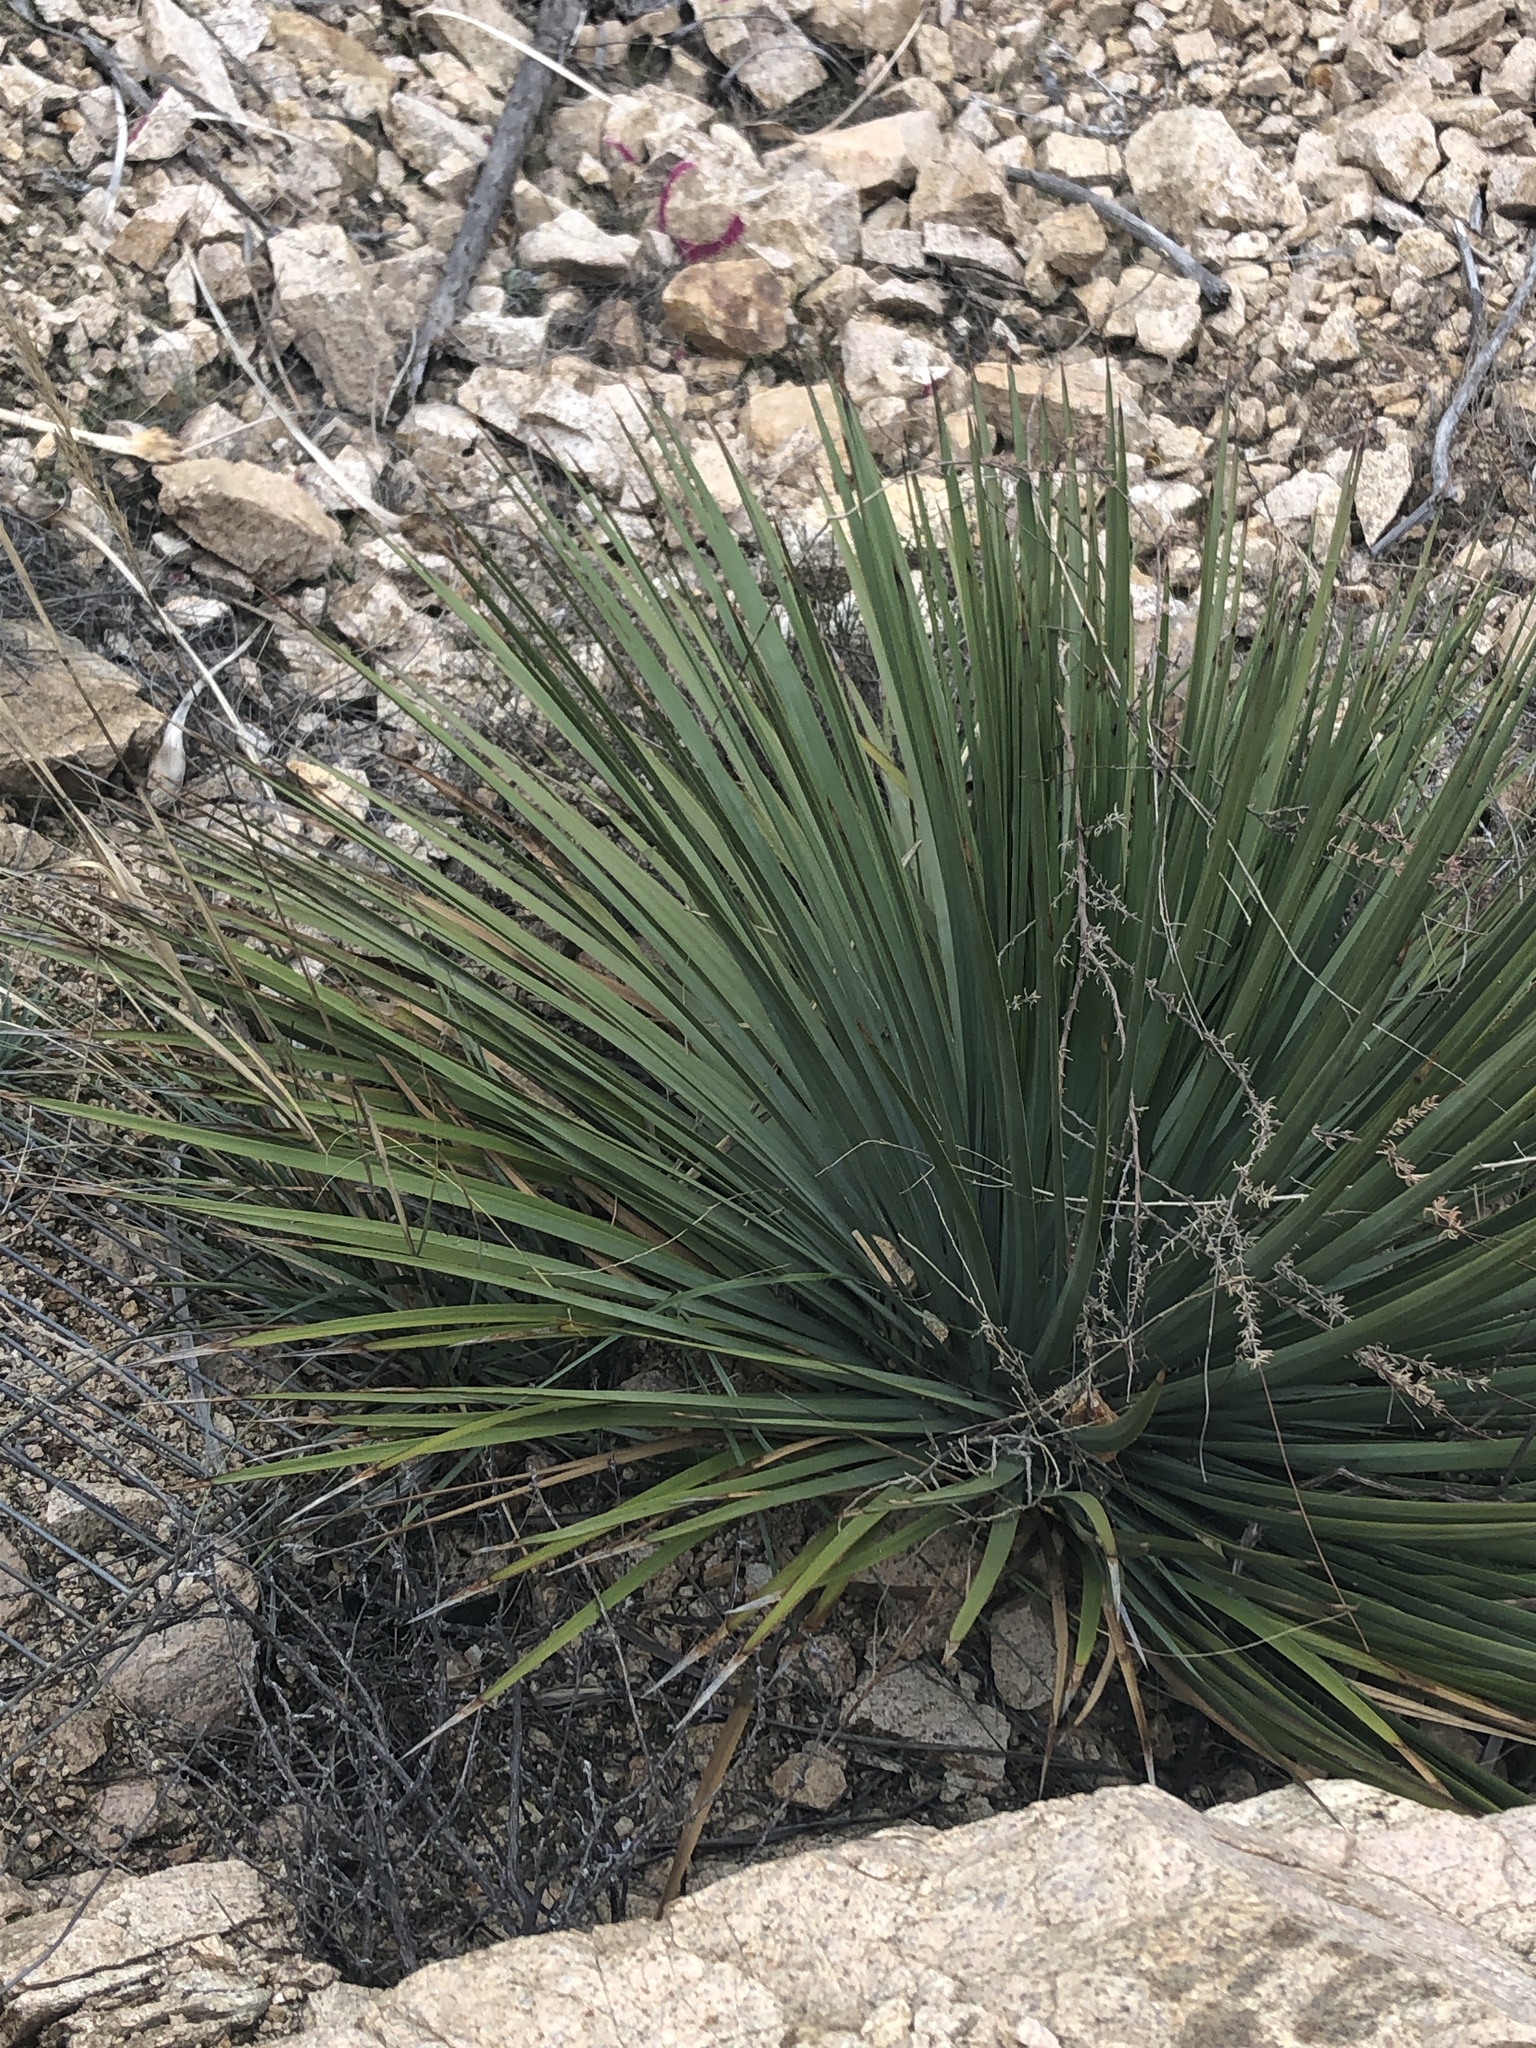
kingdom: Plantae
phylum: Tracheophyta
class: Liliopsida
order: Asparagales
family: Asparagaceae
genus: Hesperoyucca
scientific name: Hesperoyucca whipplei
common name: Our lord's-candle
